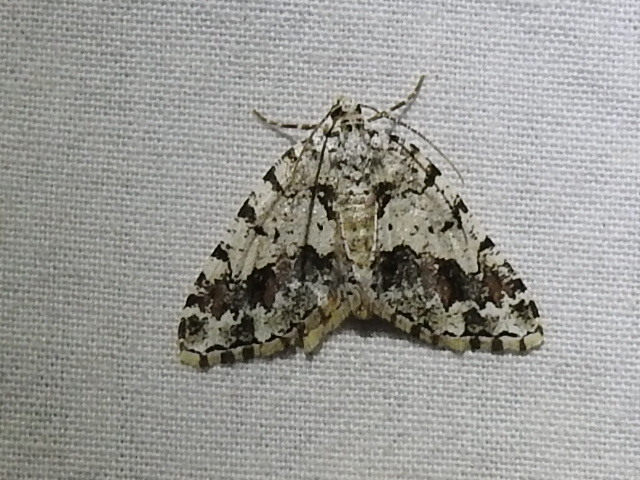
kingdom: Animalia
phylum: Arthropoda
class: Insecta
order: Lepidoptera
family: Geometridae
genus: Macaria
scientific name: Macaria graphidaria
